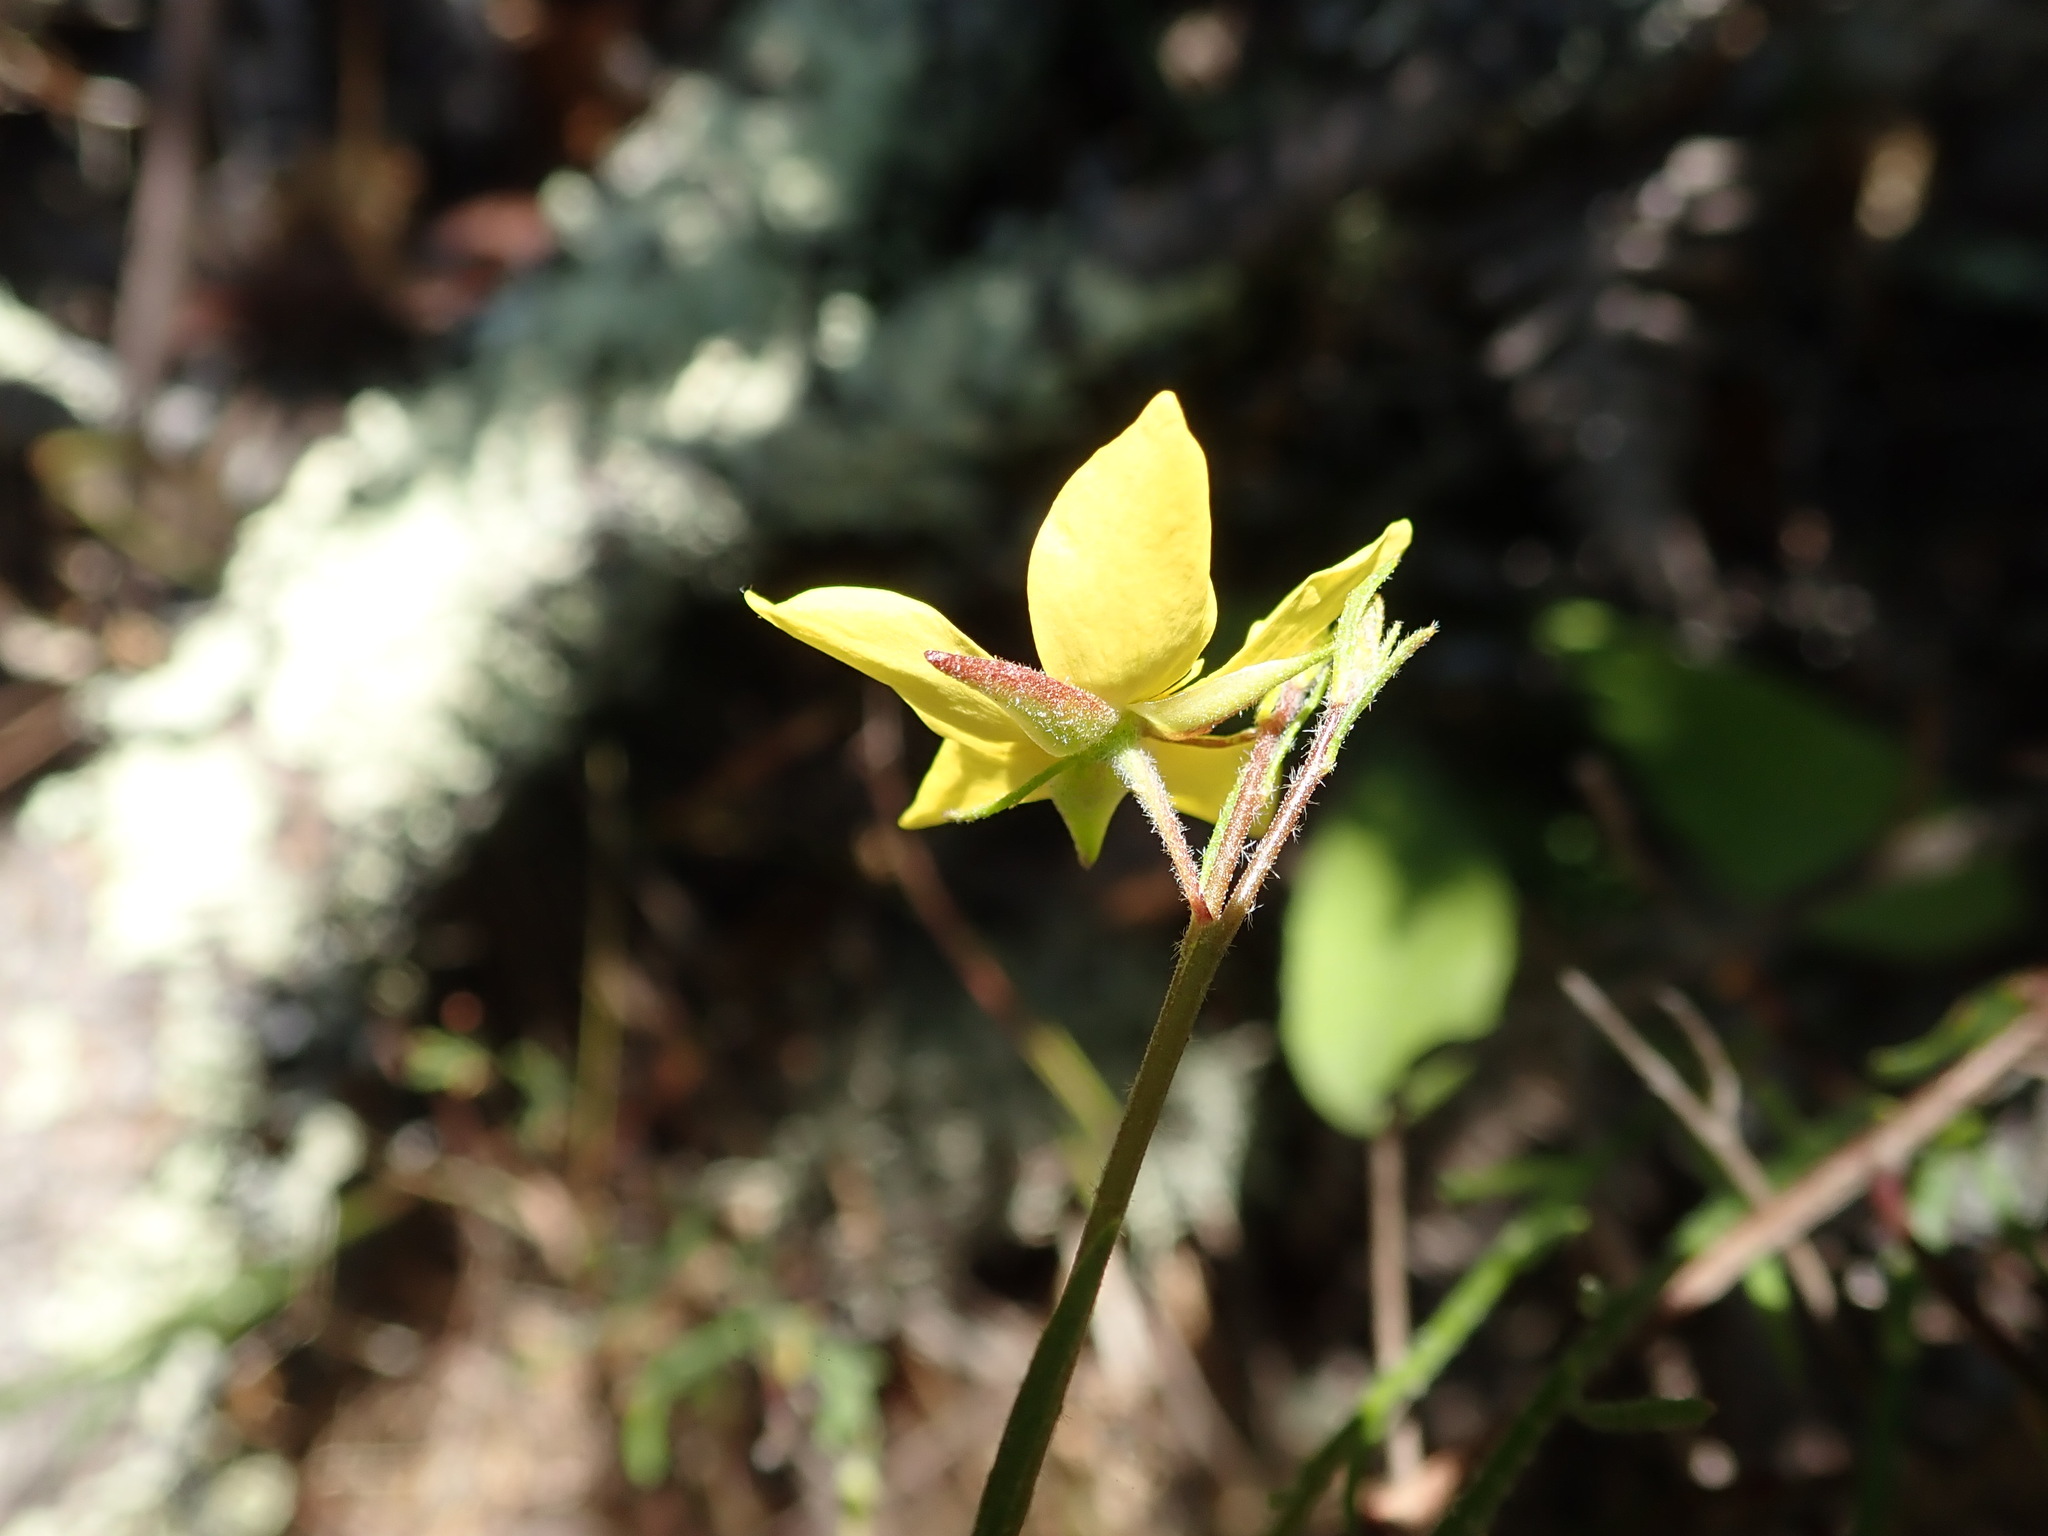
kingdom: Plantae
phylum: Tracheophyta
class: Magnoliopsida
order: Malvales
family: Cistaceae
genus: Crocanthemum
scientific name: Crocanthemum scoparium
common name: Broom-rose
